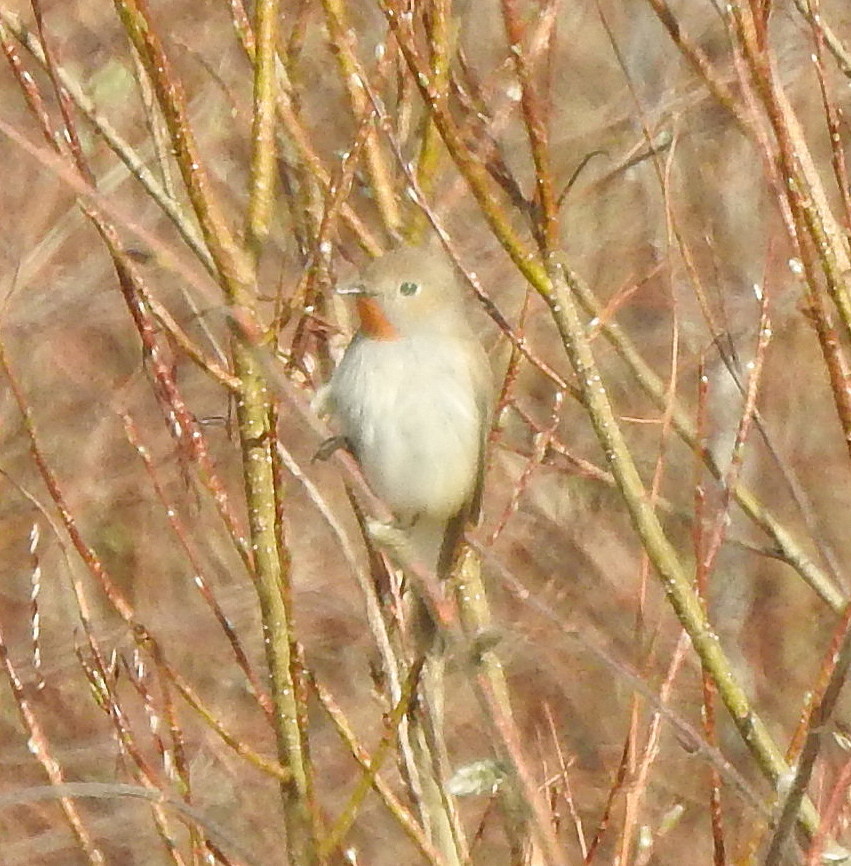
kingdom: Animalia
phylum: Chordata
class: Aves
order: Passeriformes
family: Muscicapidae
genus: Ficedula
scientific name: Ficedula albicilla
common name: Taiga flycatcher
